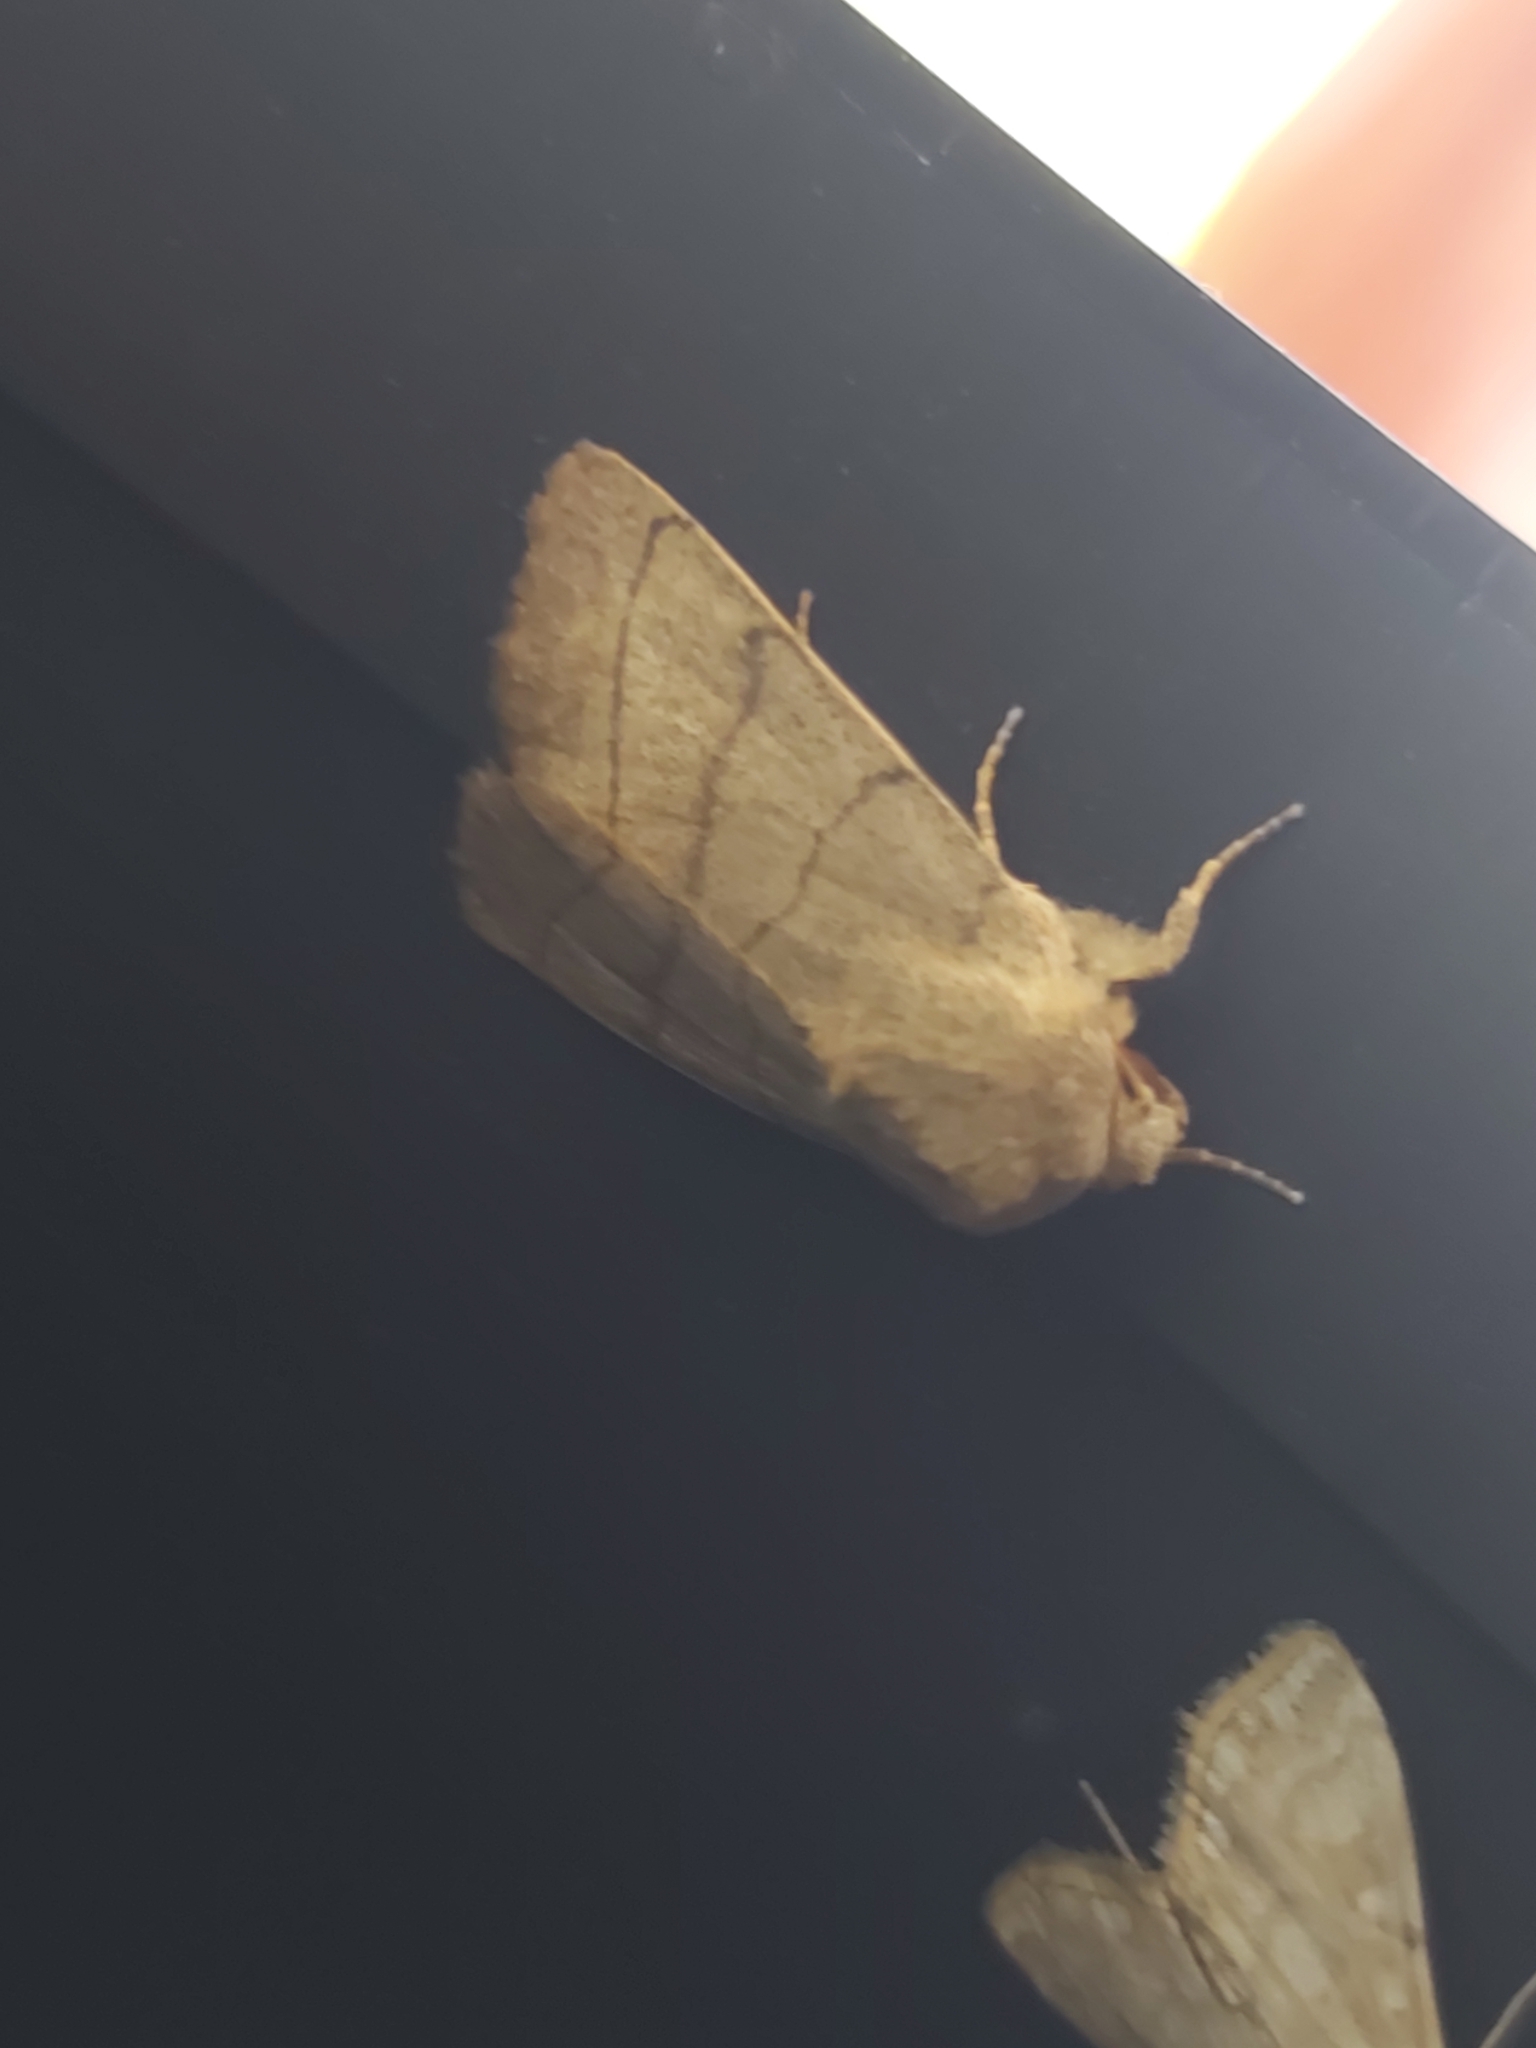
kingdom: Animalia
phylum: Arthropoda
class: Insecta
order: Lepidoptera
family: Noctuidae
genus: Charanyca
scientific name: Charanyca trigrammica
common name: Treble lines
